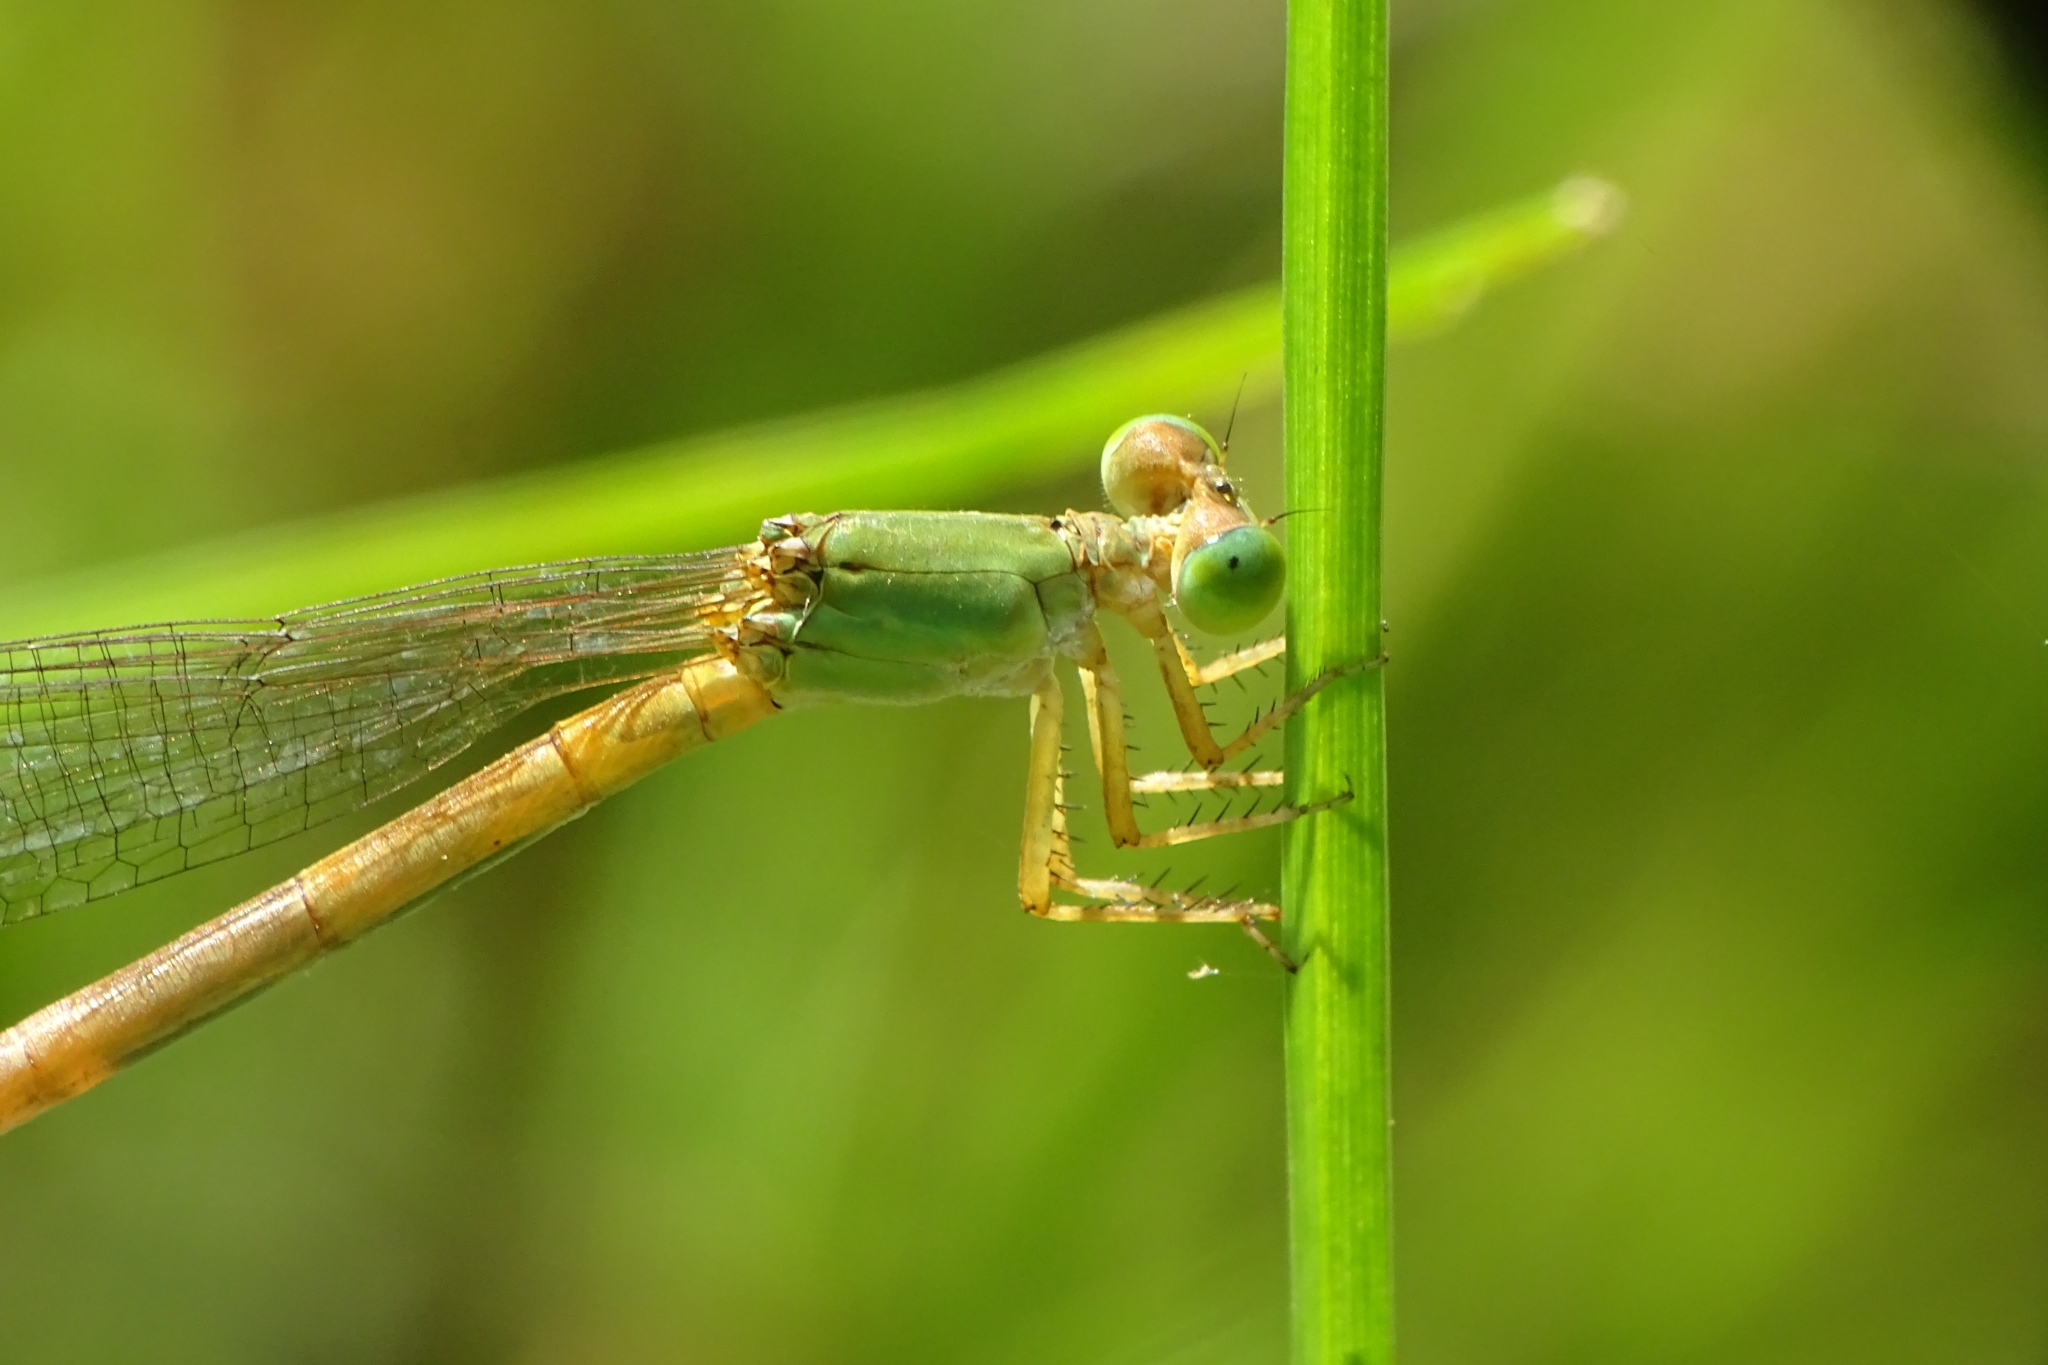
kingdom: Animalia
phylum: Arthropoda
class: Insecta
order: Odonata
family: Coenagrionidae
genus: Ceriagrion
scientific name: Ceriagrion coromandelianum
